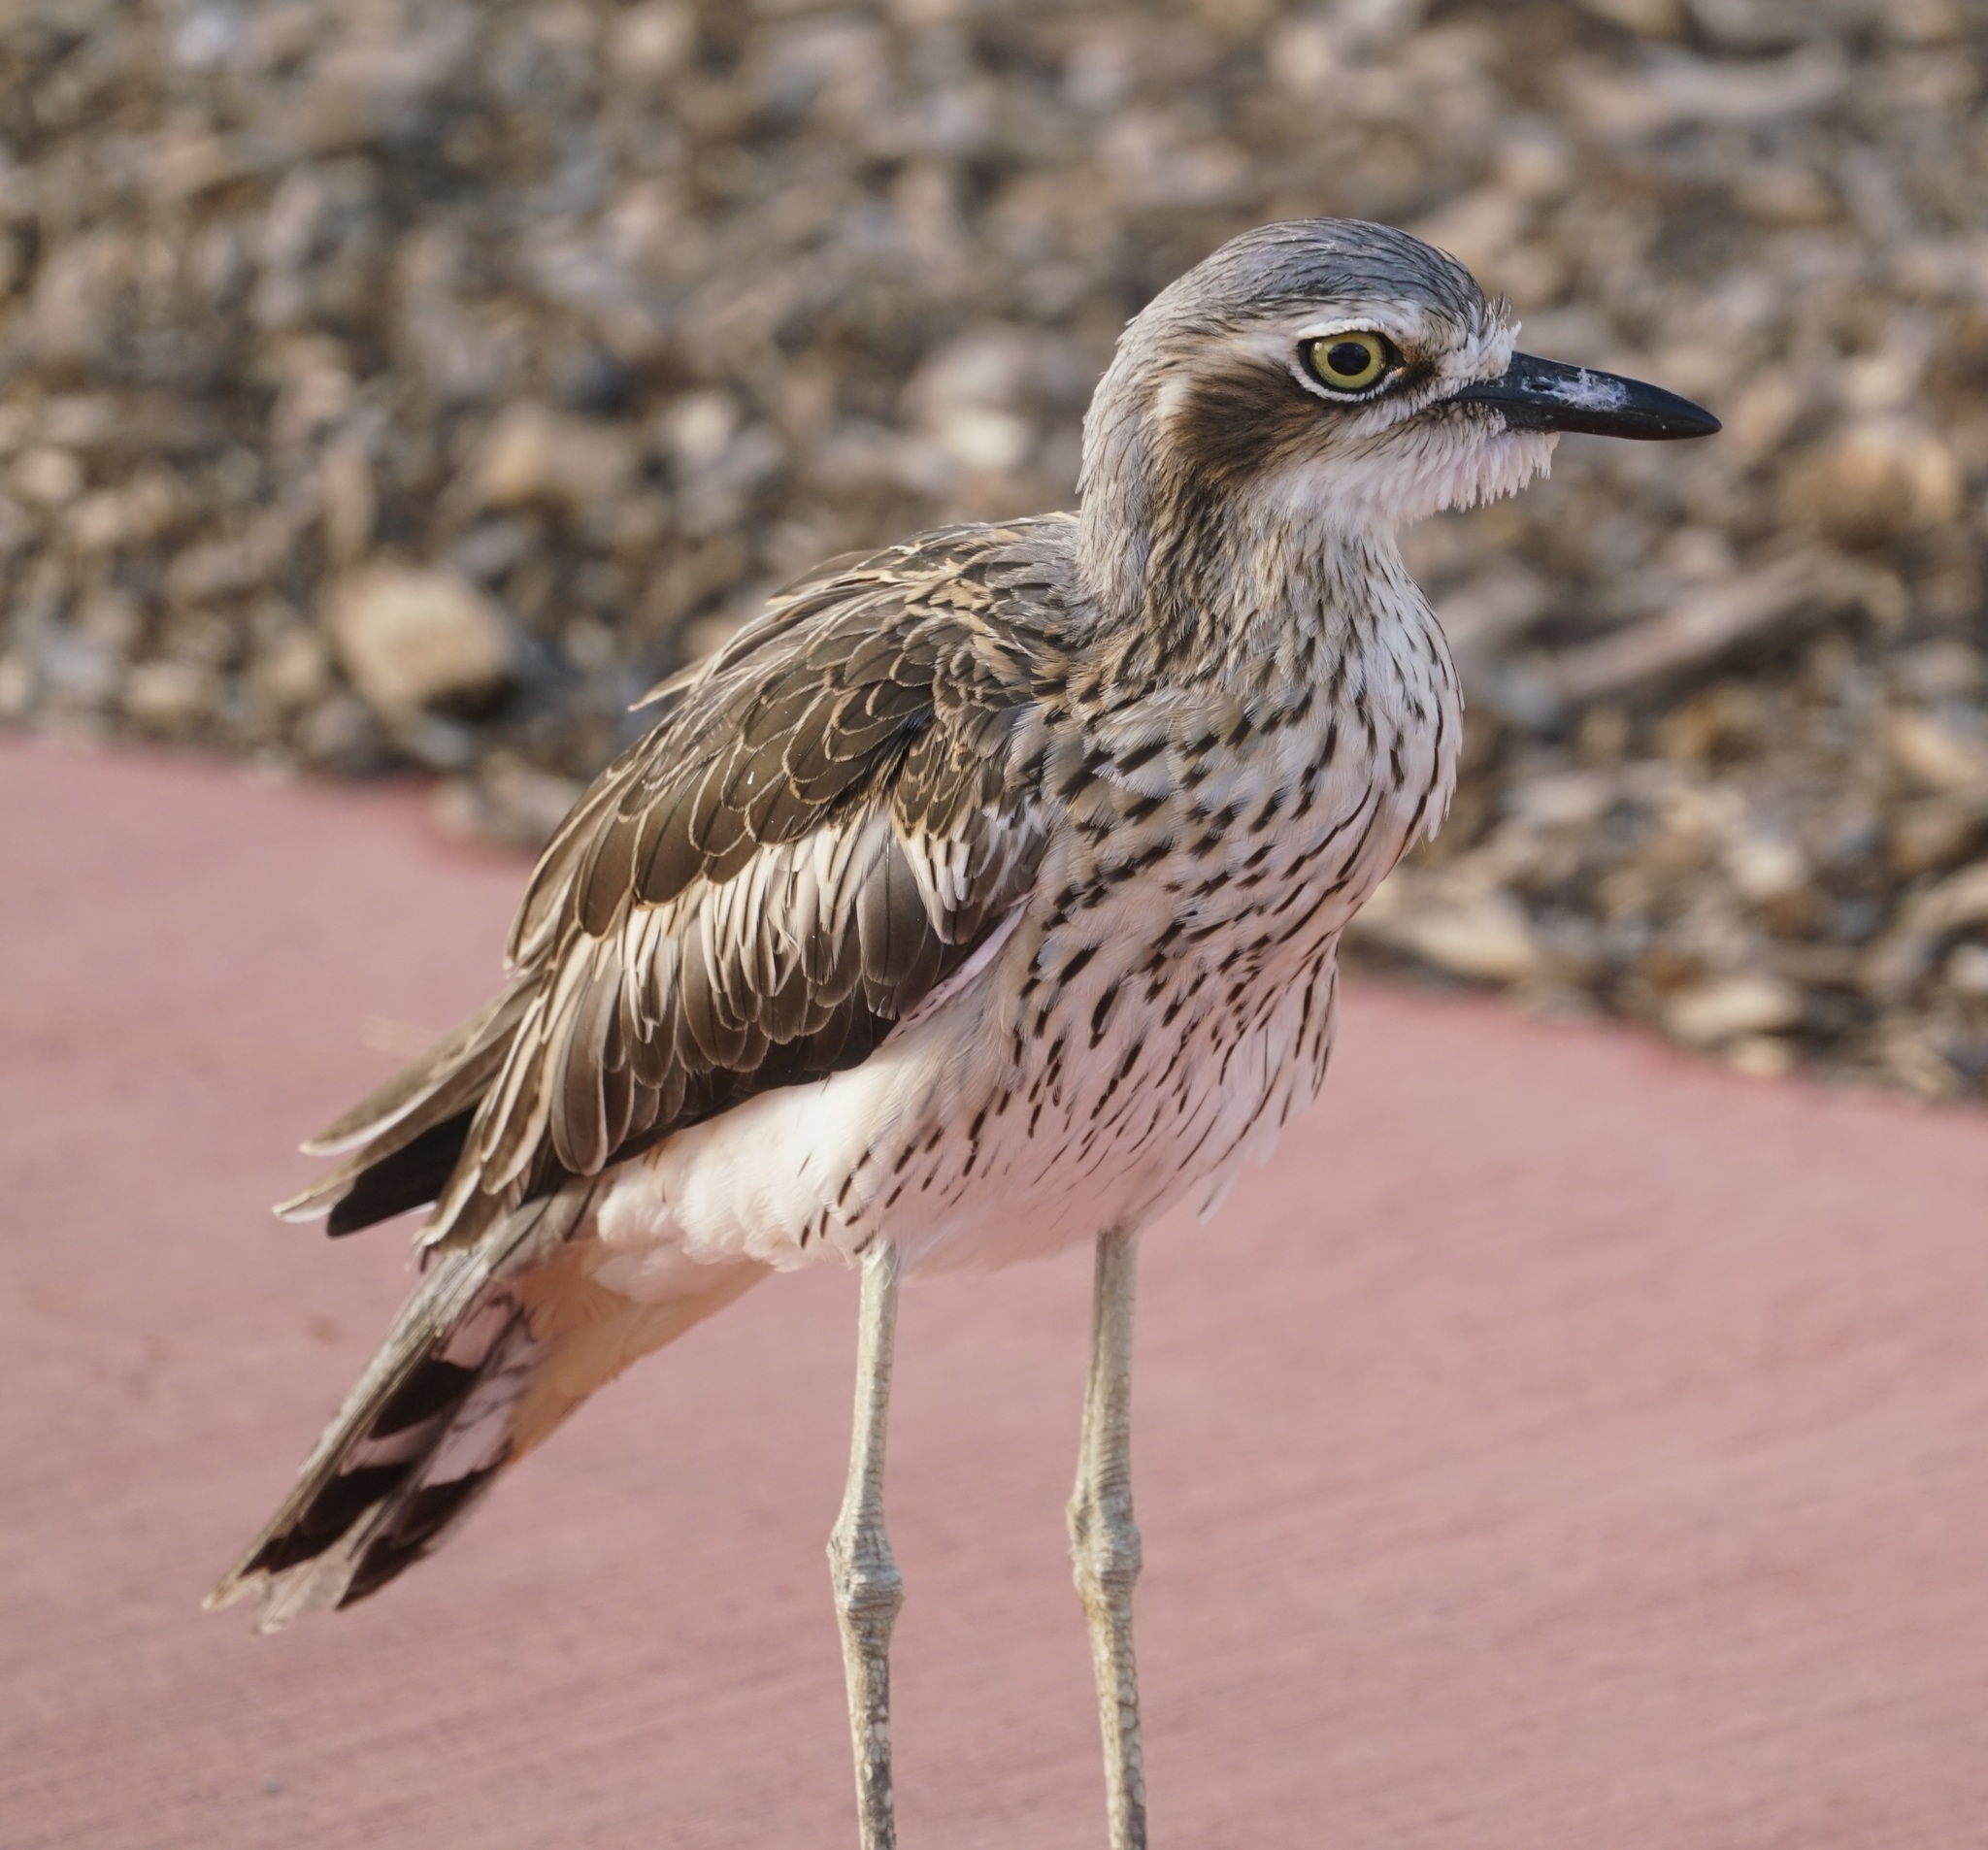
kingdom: Animalia
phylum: Chordata
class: Aves
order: Charadriiformes
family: Burhinidae
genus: Burhinus
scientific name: Burhinus grallarius
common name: Bush stone-curlew
